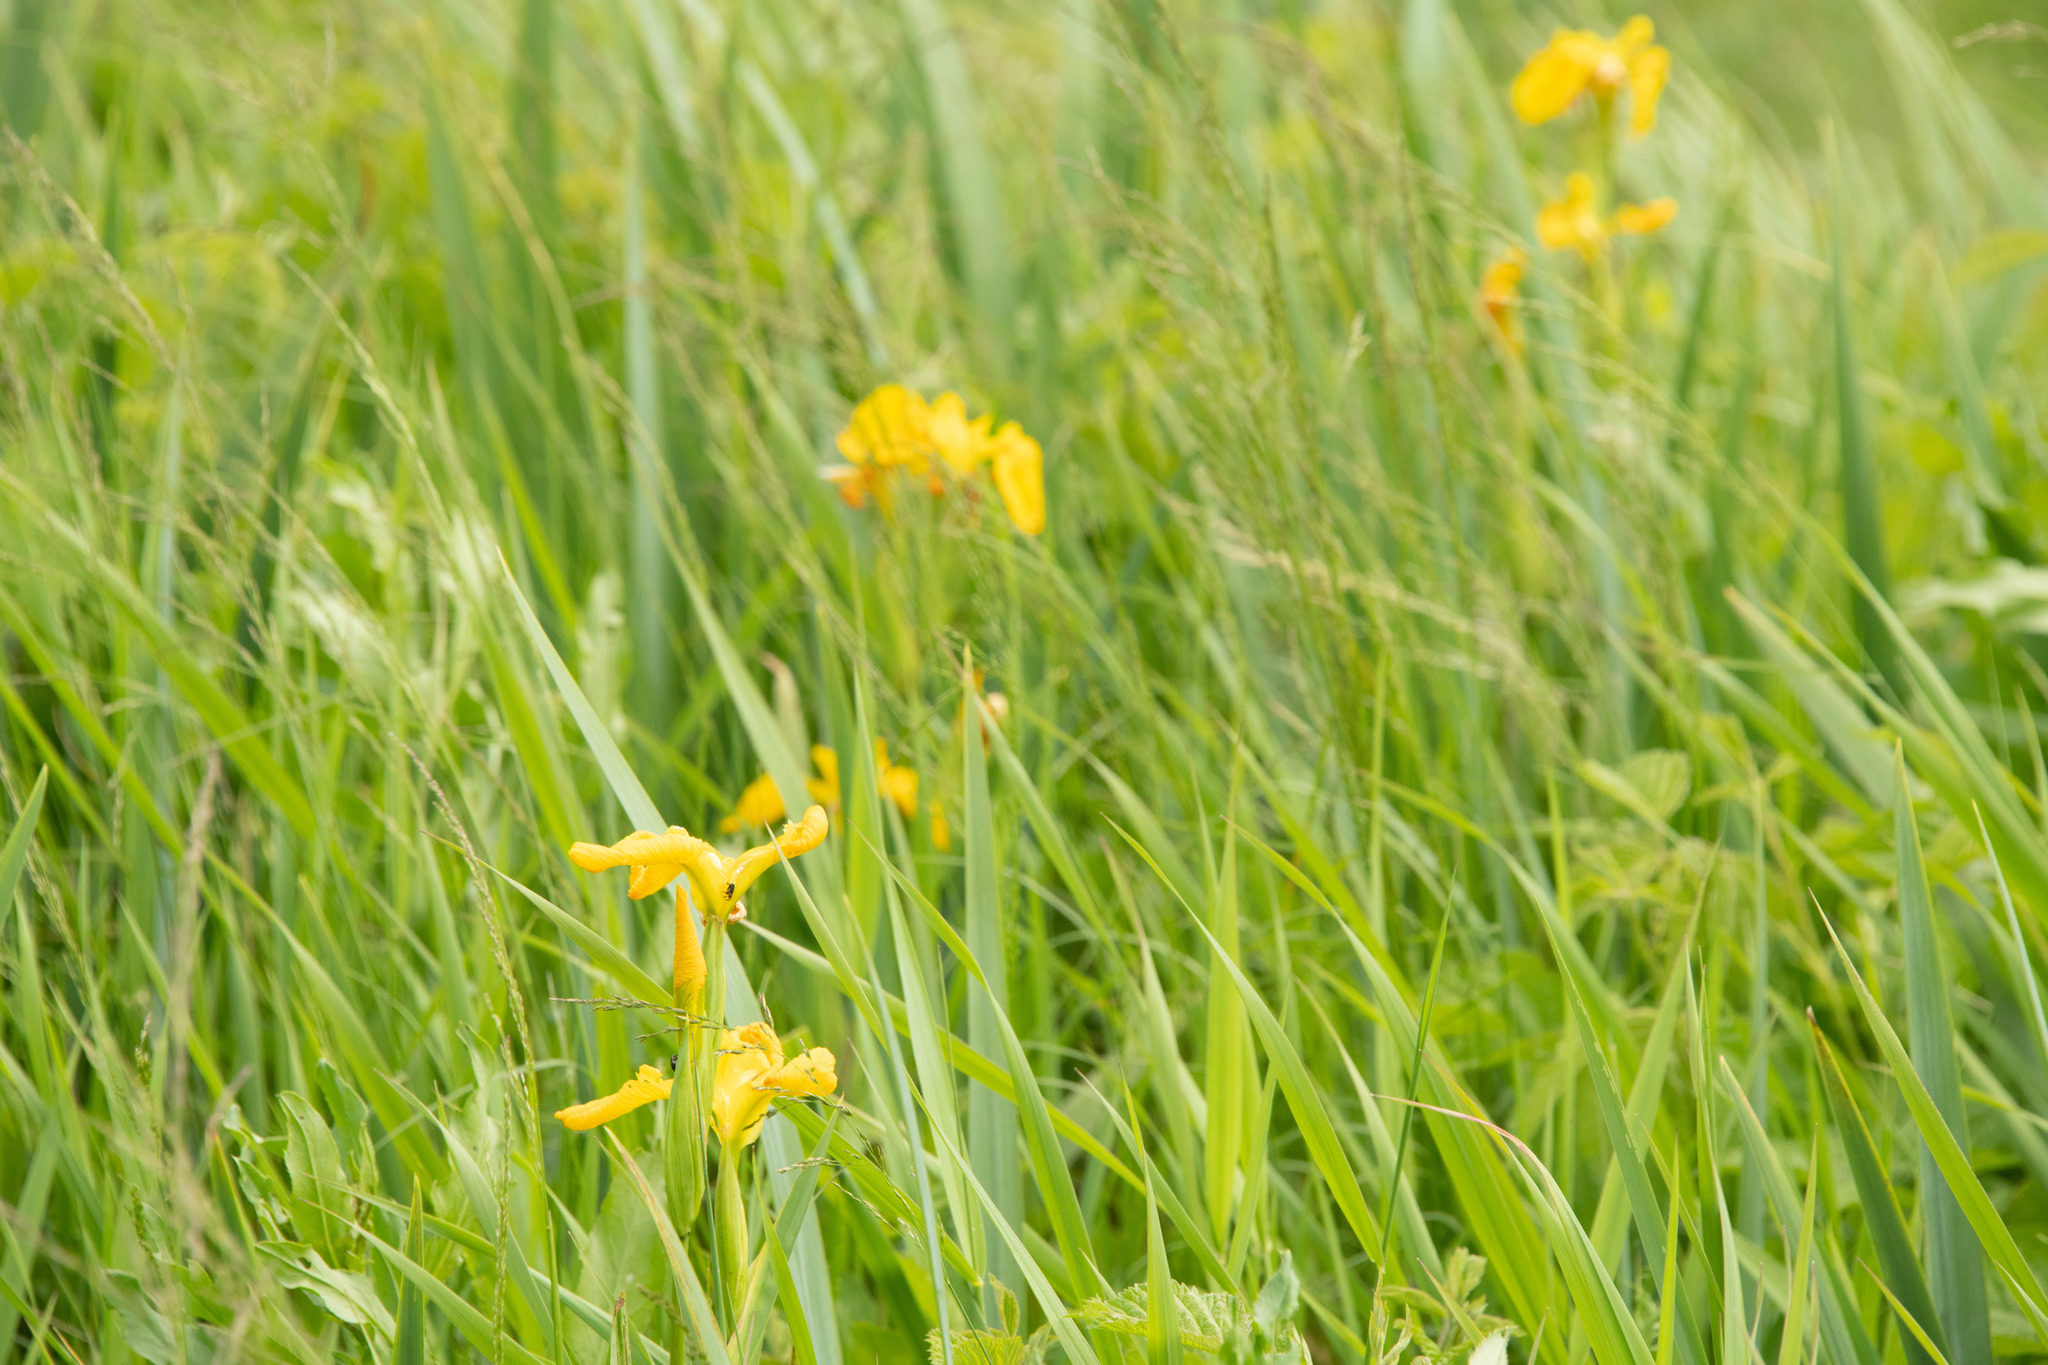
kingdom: Plantae
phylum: Tracheophyta
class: Liliopsida
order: Asparagales
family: Iridaceae
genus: Iris
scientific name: Iris pseudacorus
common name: Yellow flag
